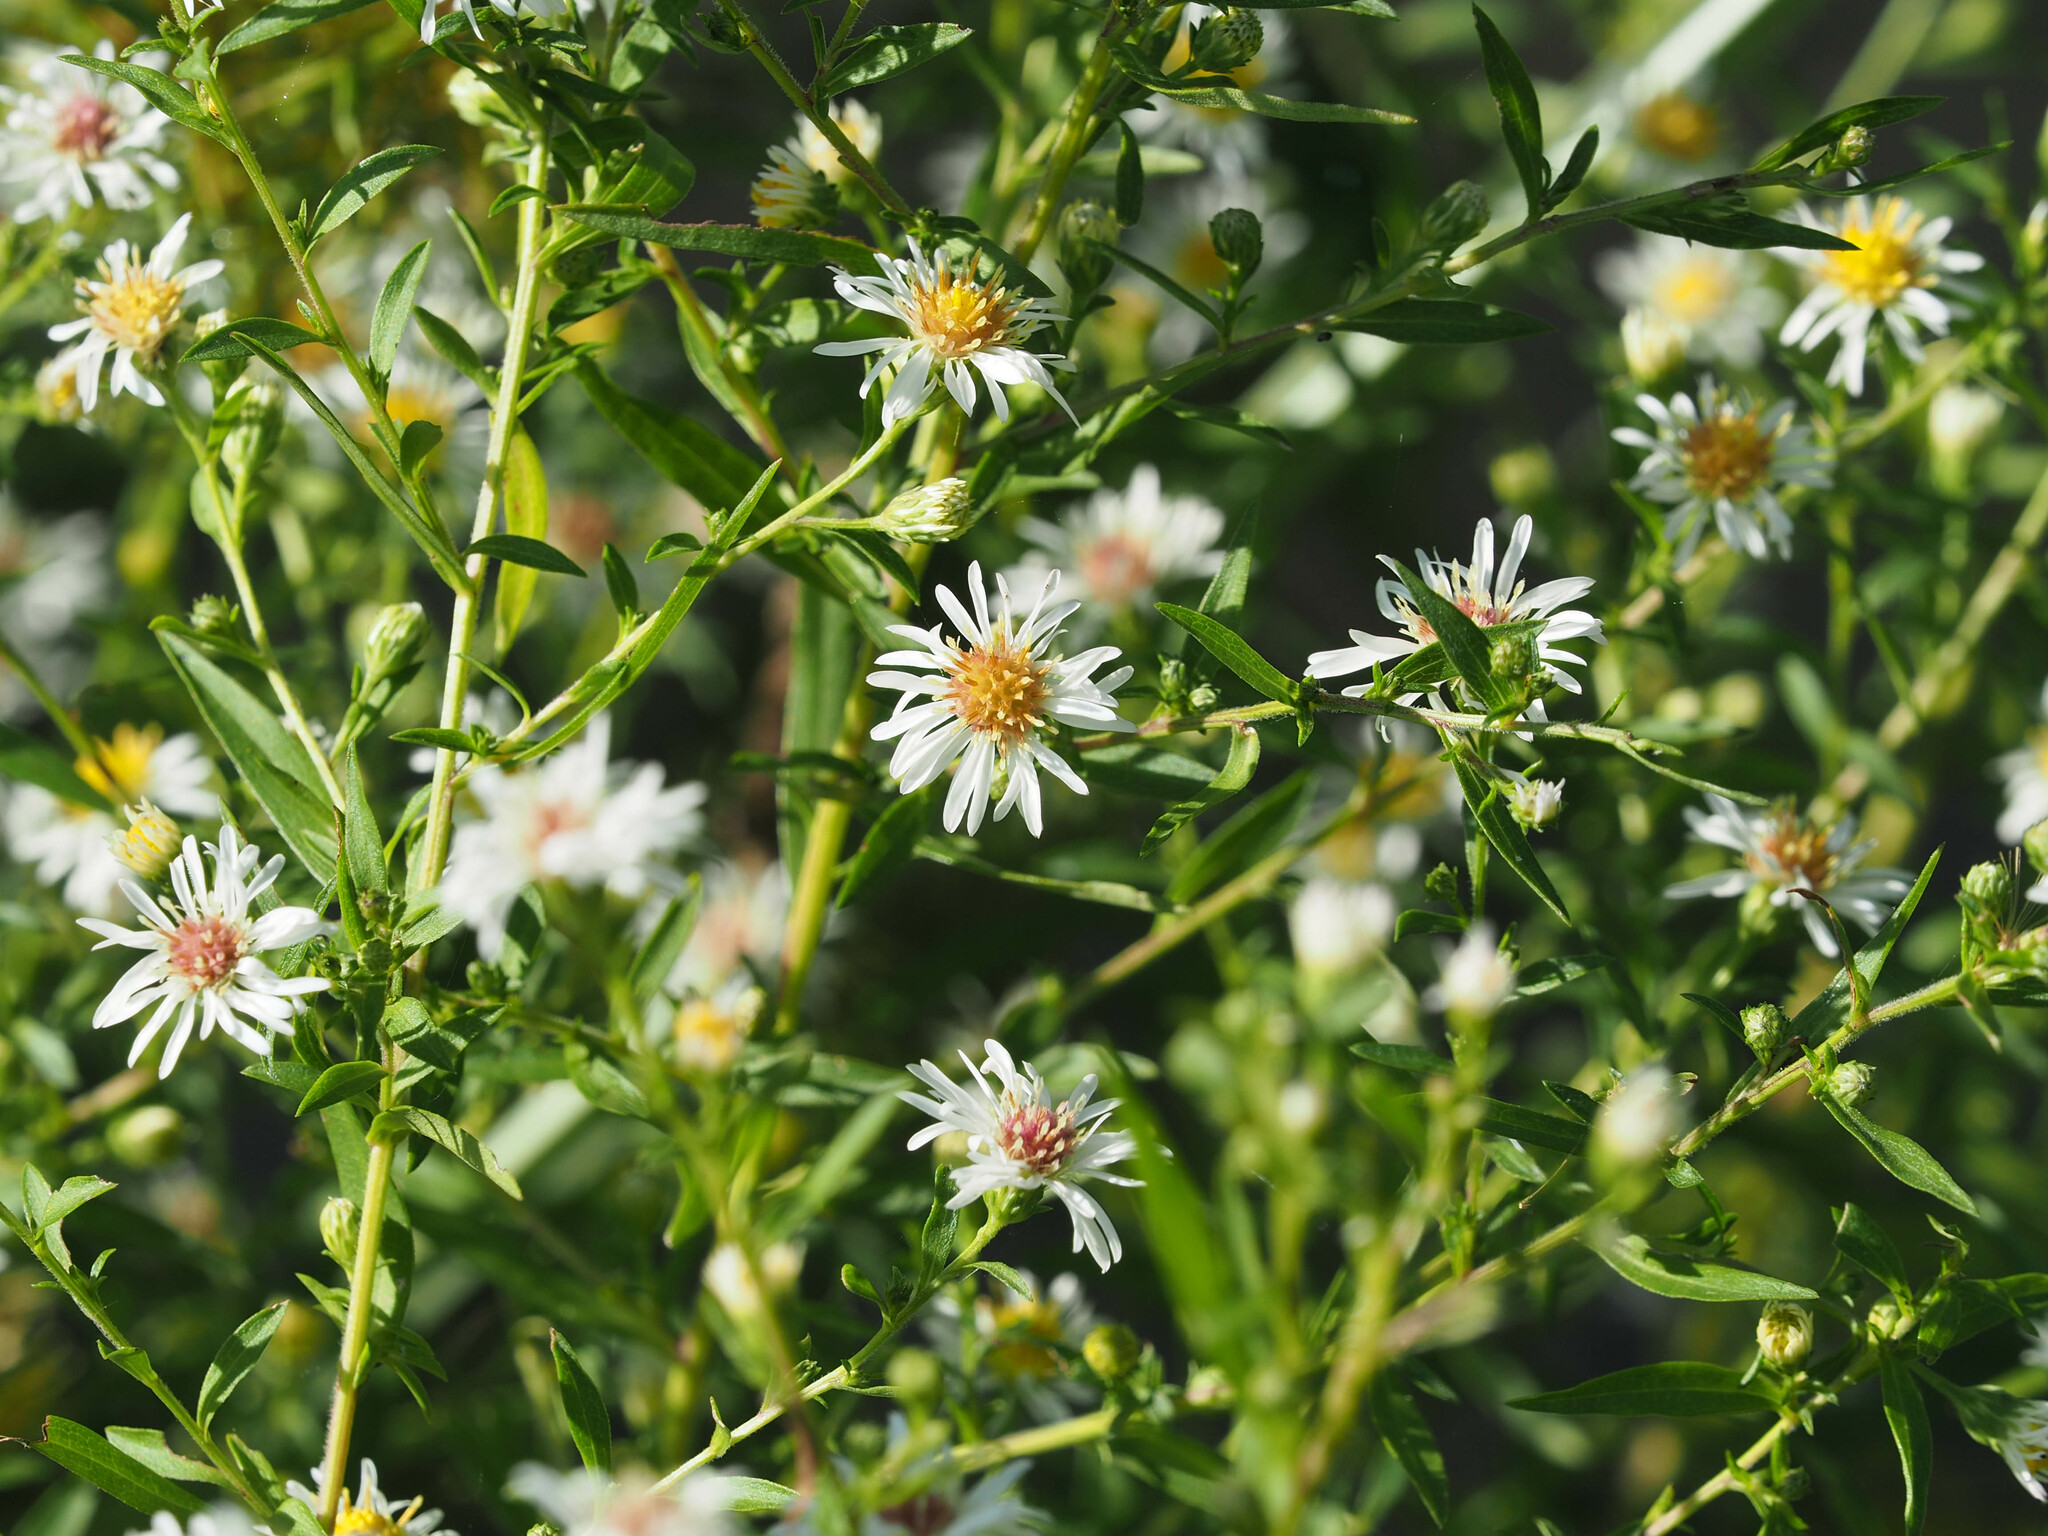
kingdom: Plantae
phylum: Tracheophyta
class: Magnoliopsida
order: Asterales
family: Asteraceae
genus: Symphyotrichum
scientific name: Symphyotrichum lanceolatum
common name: Panicled aster
